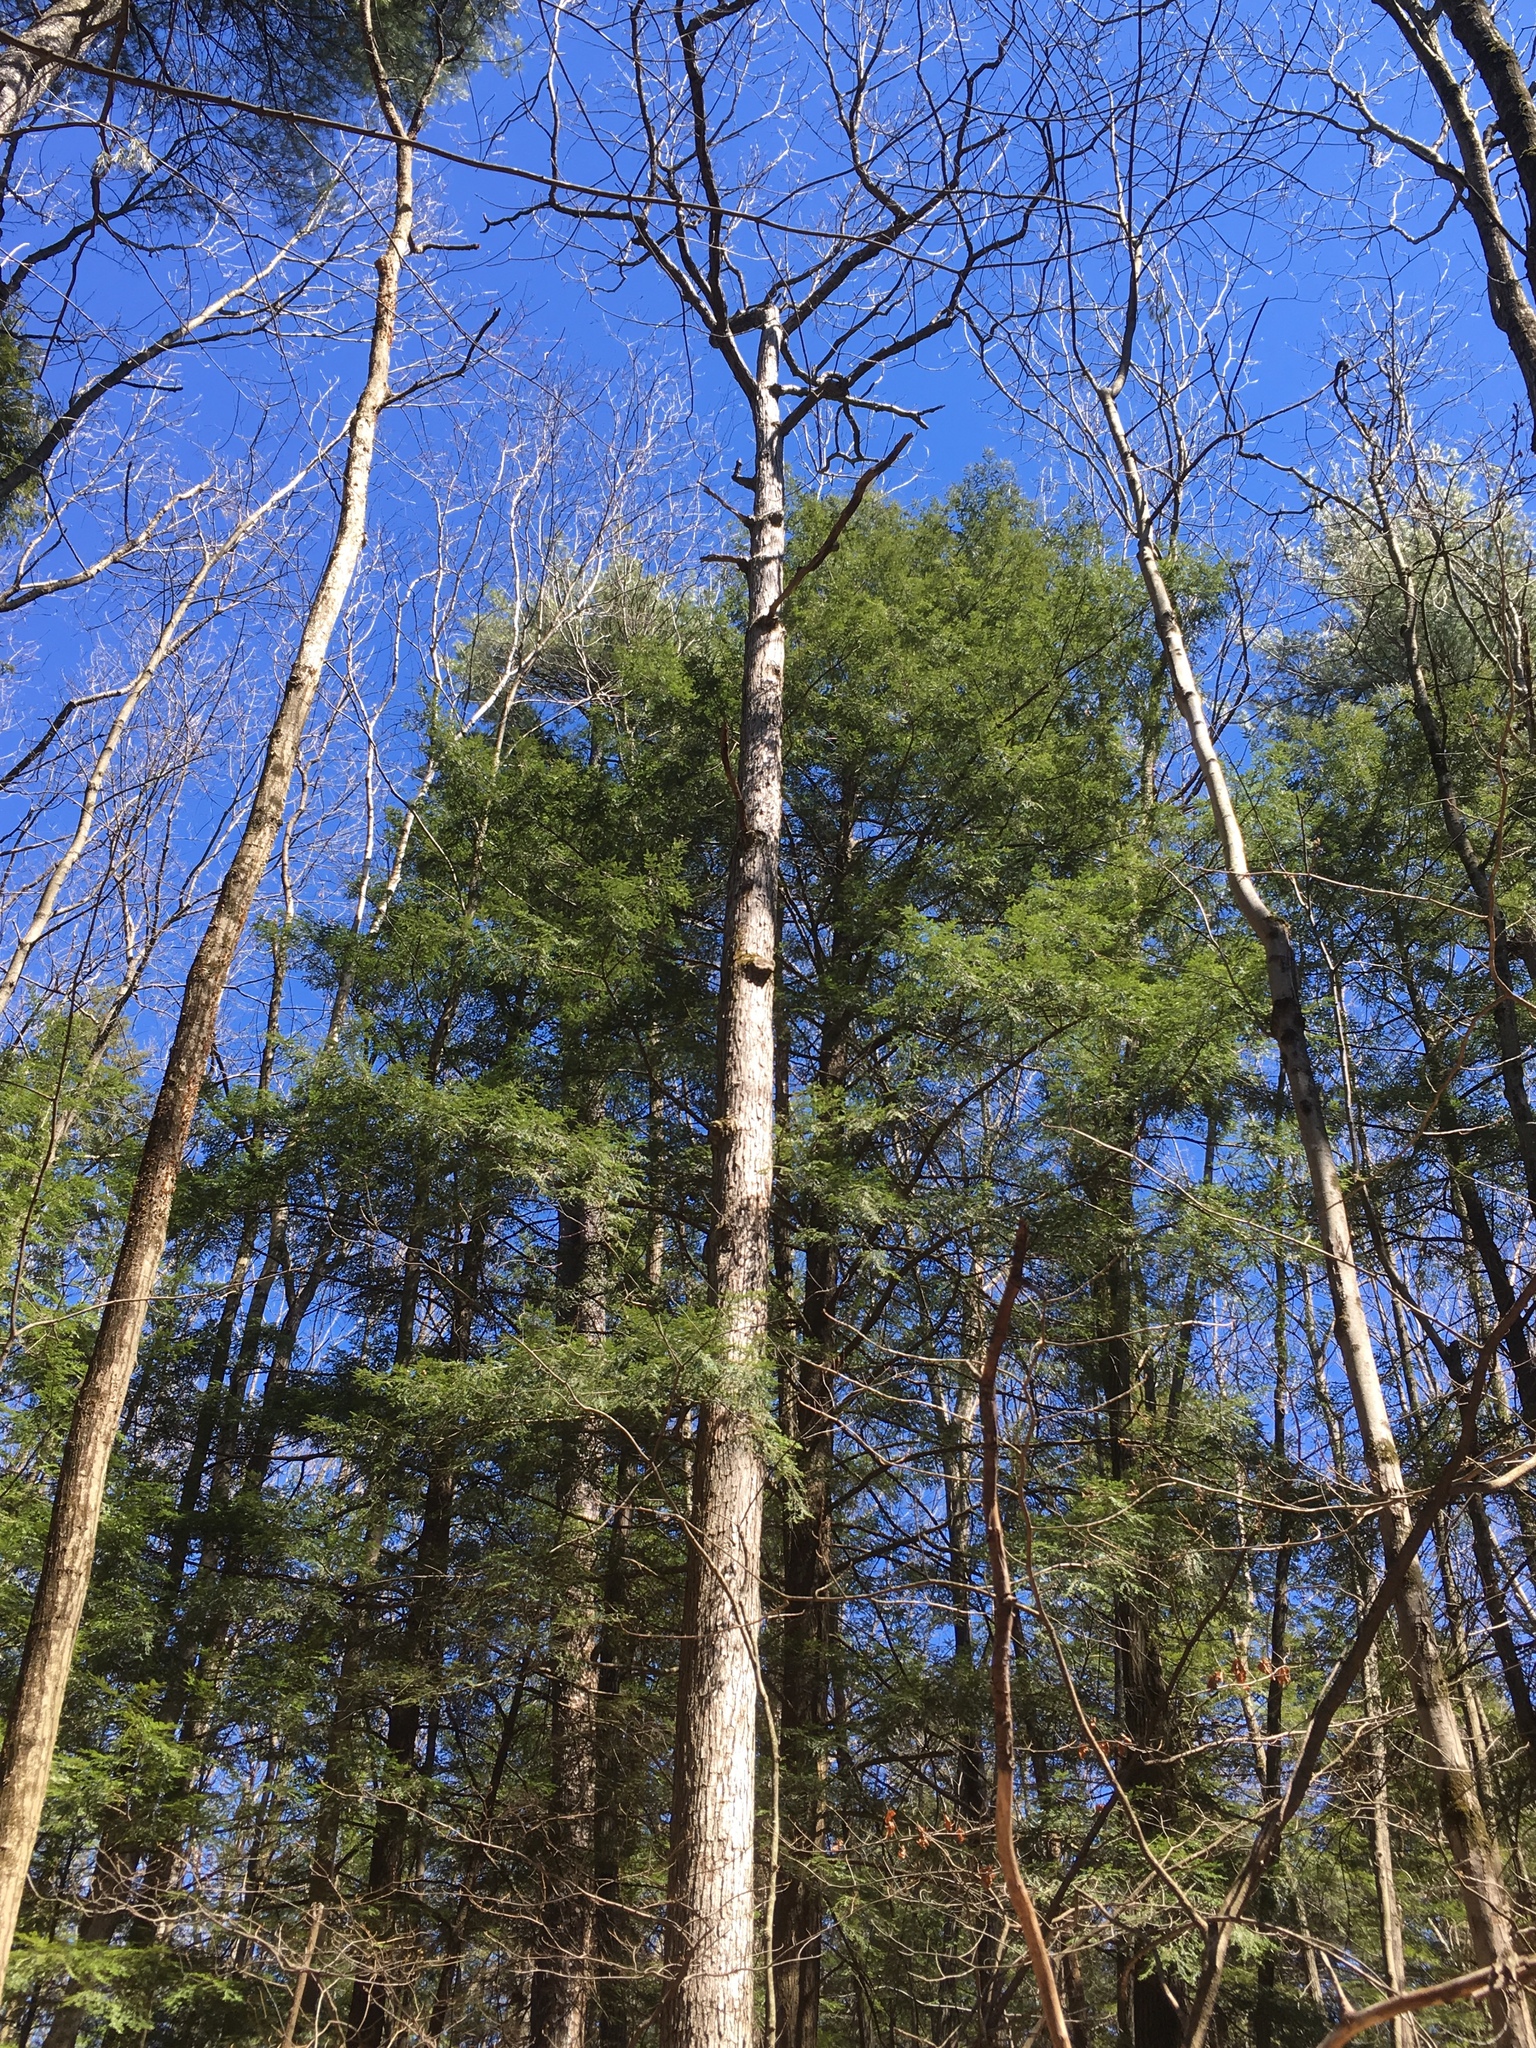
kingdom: Plantae
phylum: Tracheophyta
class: Magnoliopsida
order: Fagales
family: Fagaceae
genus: Quercus
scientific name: Quercus alba
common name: White oak
